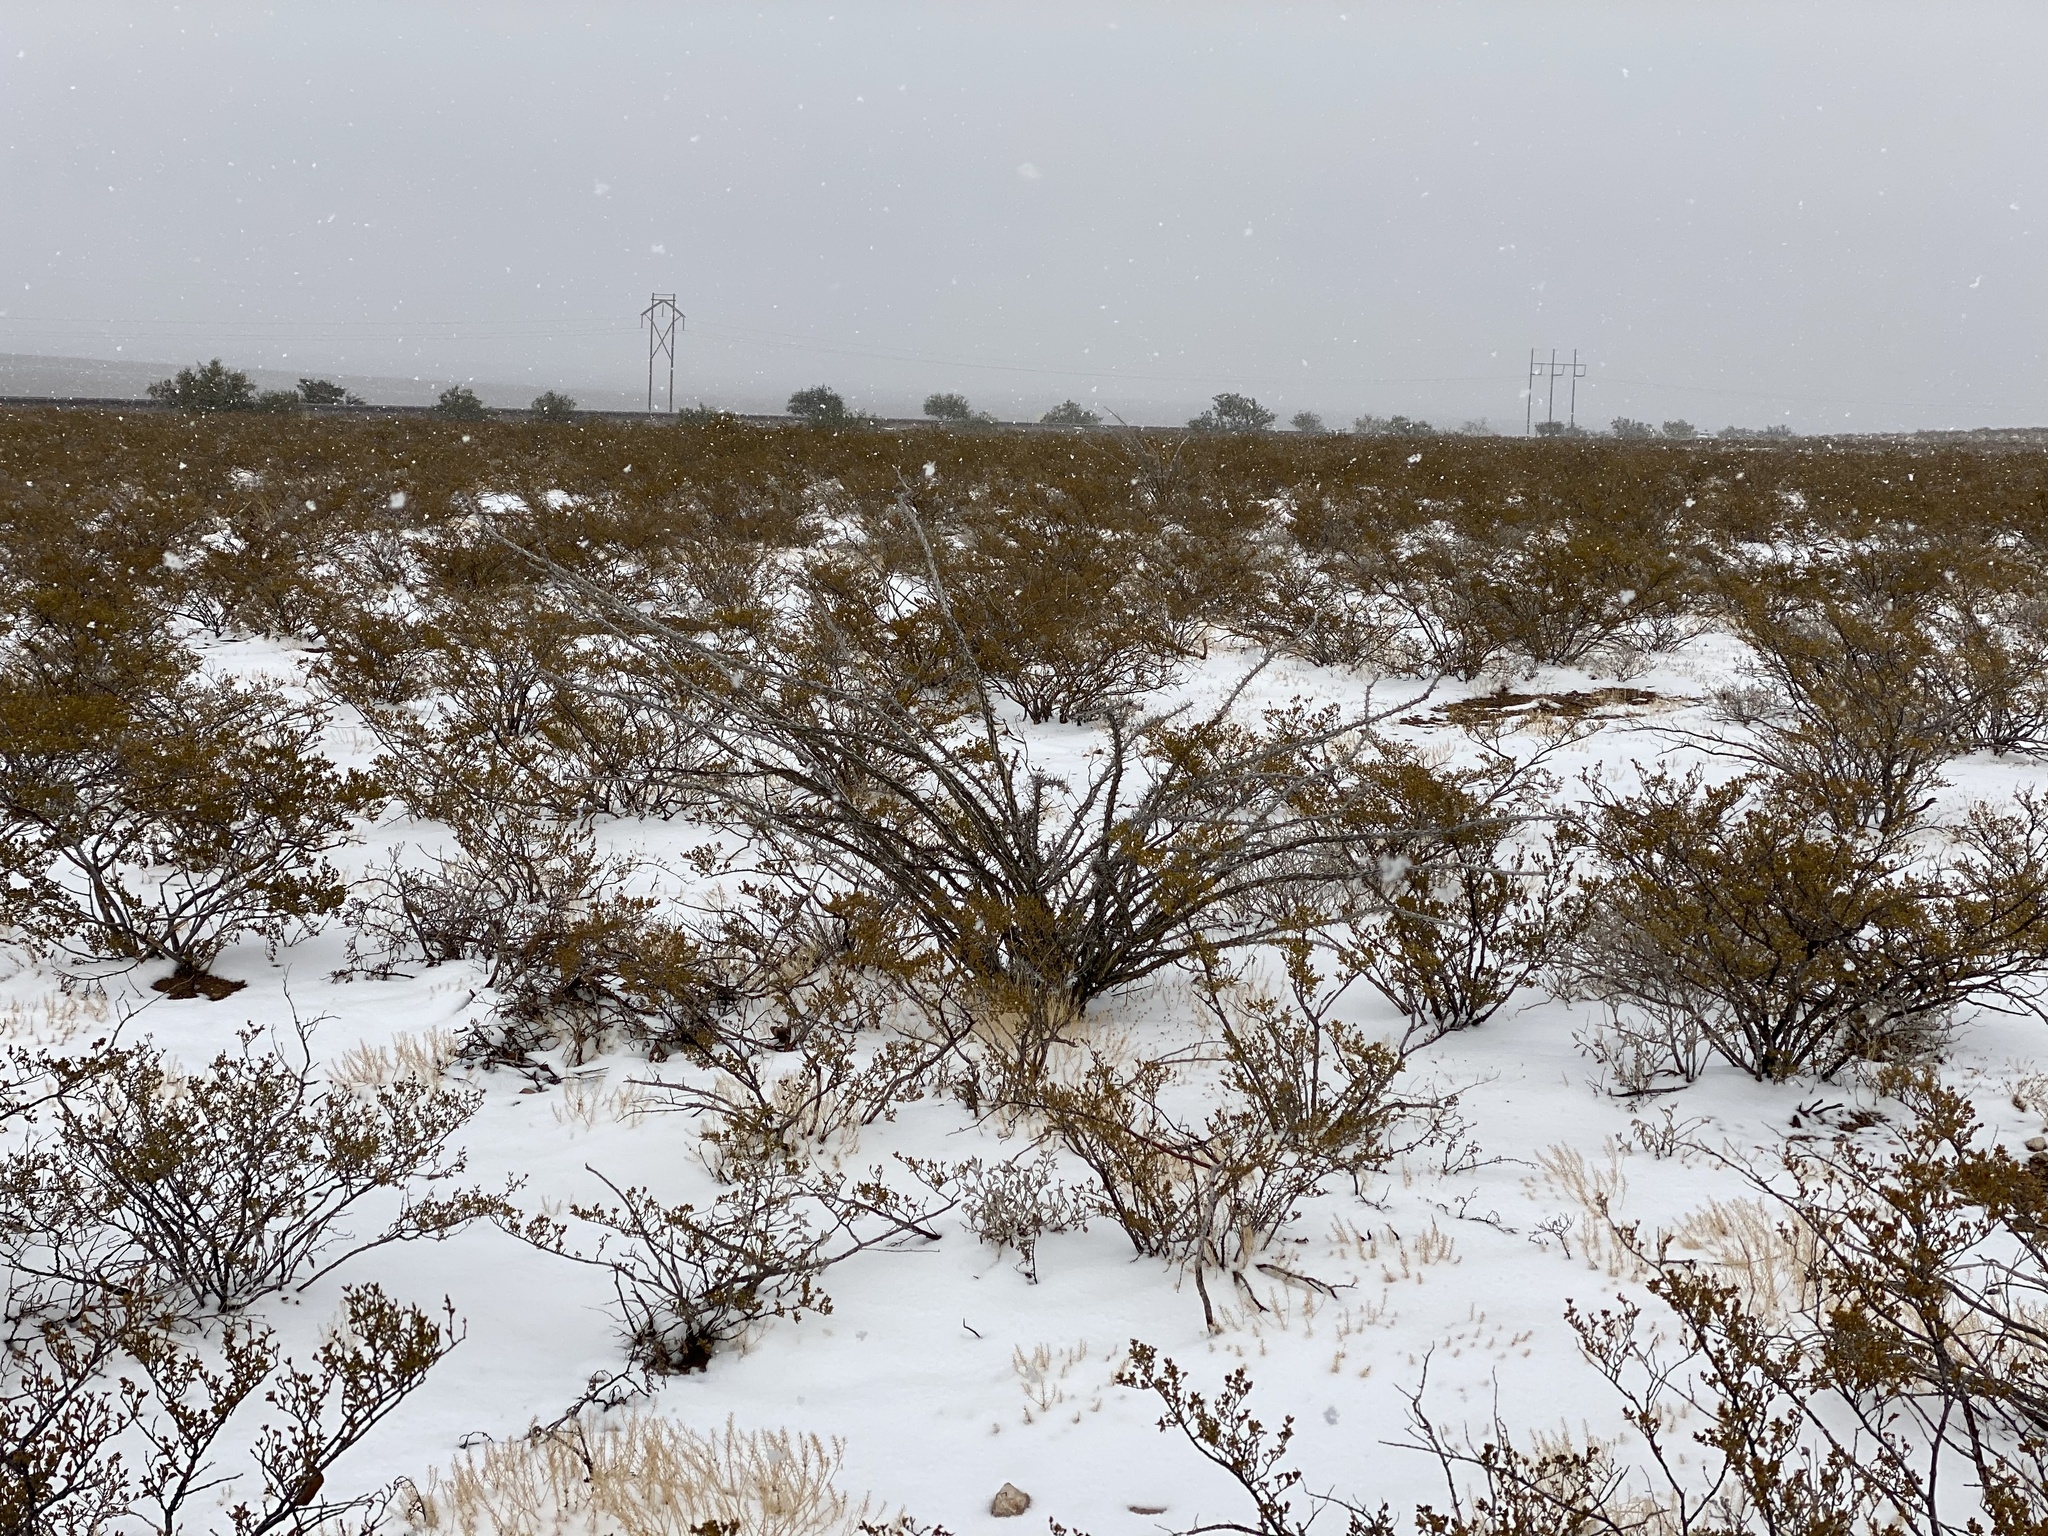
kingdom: Plantae
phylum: Tracheophyta
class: Magnoliopsida
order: Zygophyllales
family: Zygophyllaceae
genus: Larrea
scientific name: Larrea tridentata
